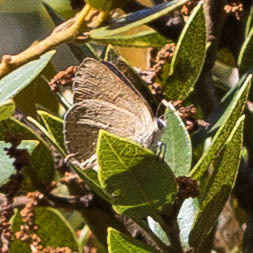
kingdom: Animalia
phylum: Arthropoda
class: Insecta
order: Lepidoptera
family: Lycaenidae
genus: Habrodais
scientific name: Habrodais grunus
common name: Golden hairstreak
